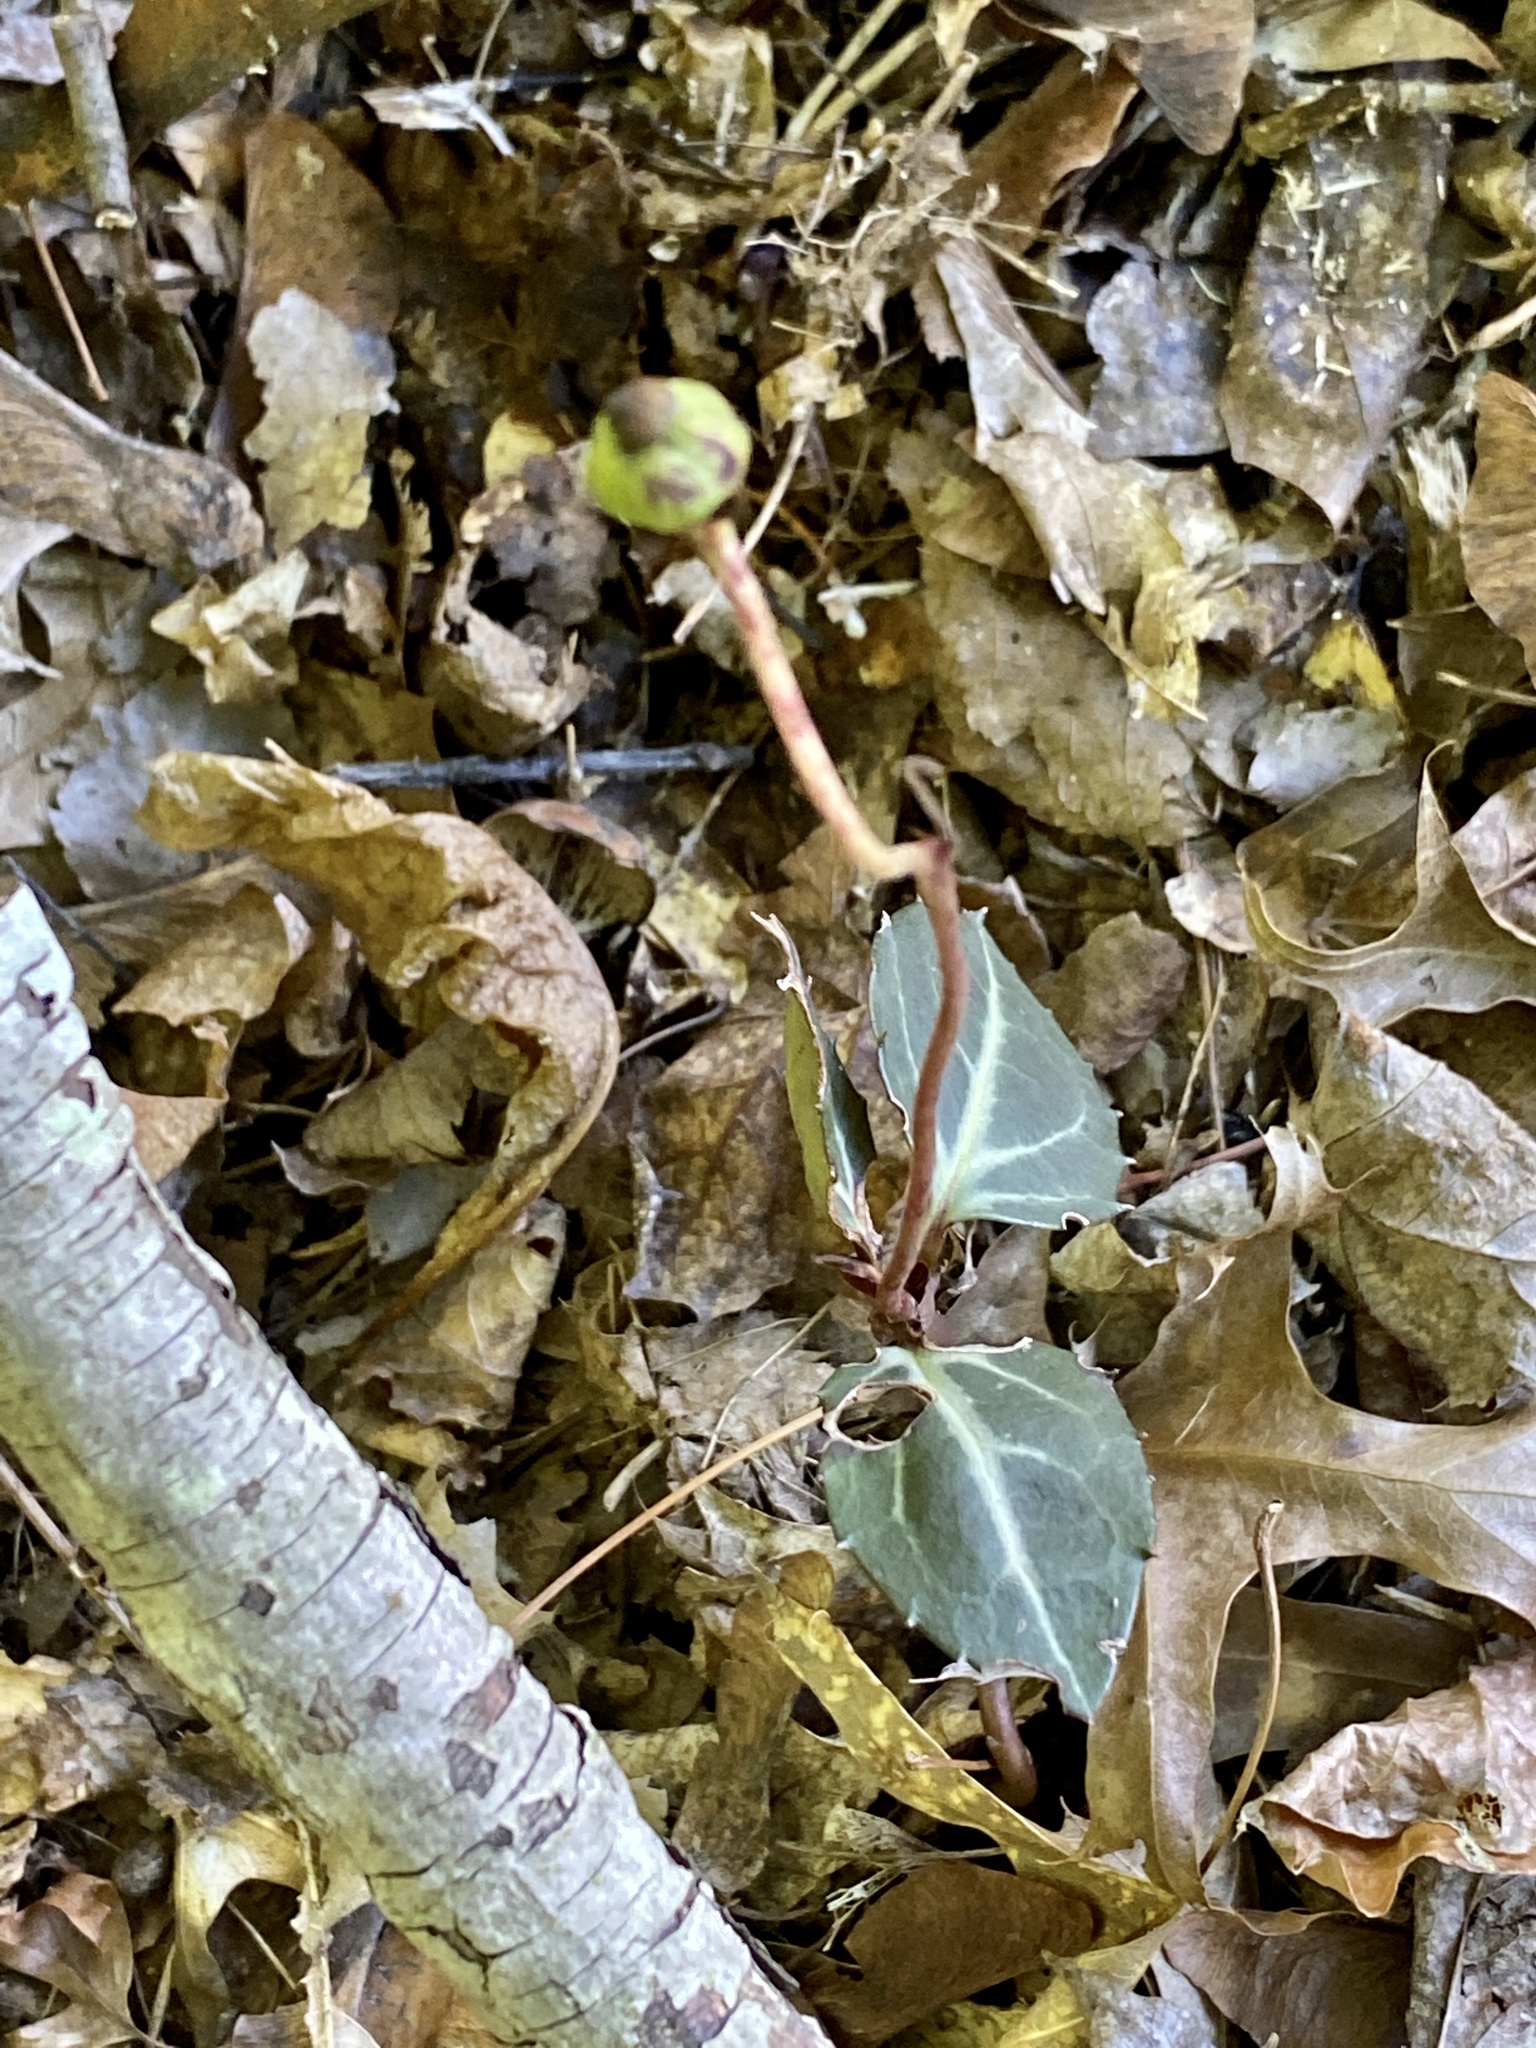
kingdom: Plantae
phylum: Tracheophyta
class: Magnoliopsida
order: Ericales
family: Ericaceae
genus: Chimaphila
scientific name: Chimaphila maculata
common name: Spotted pipsissewa
